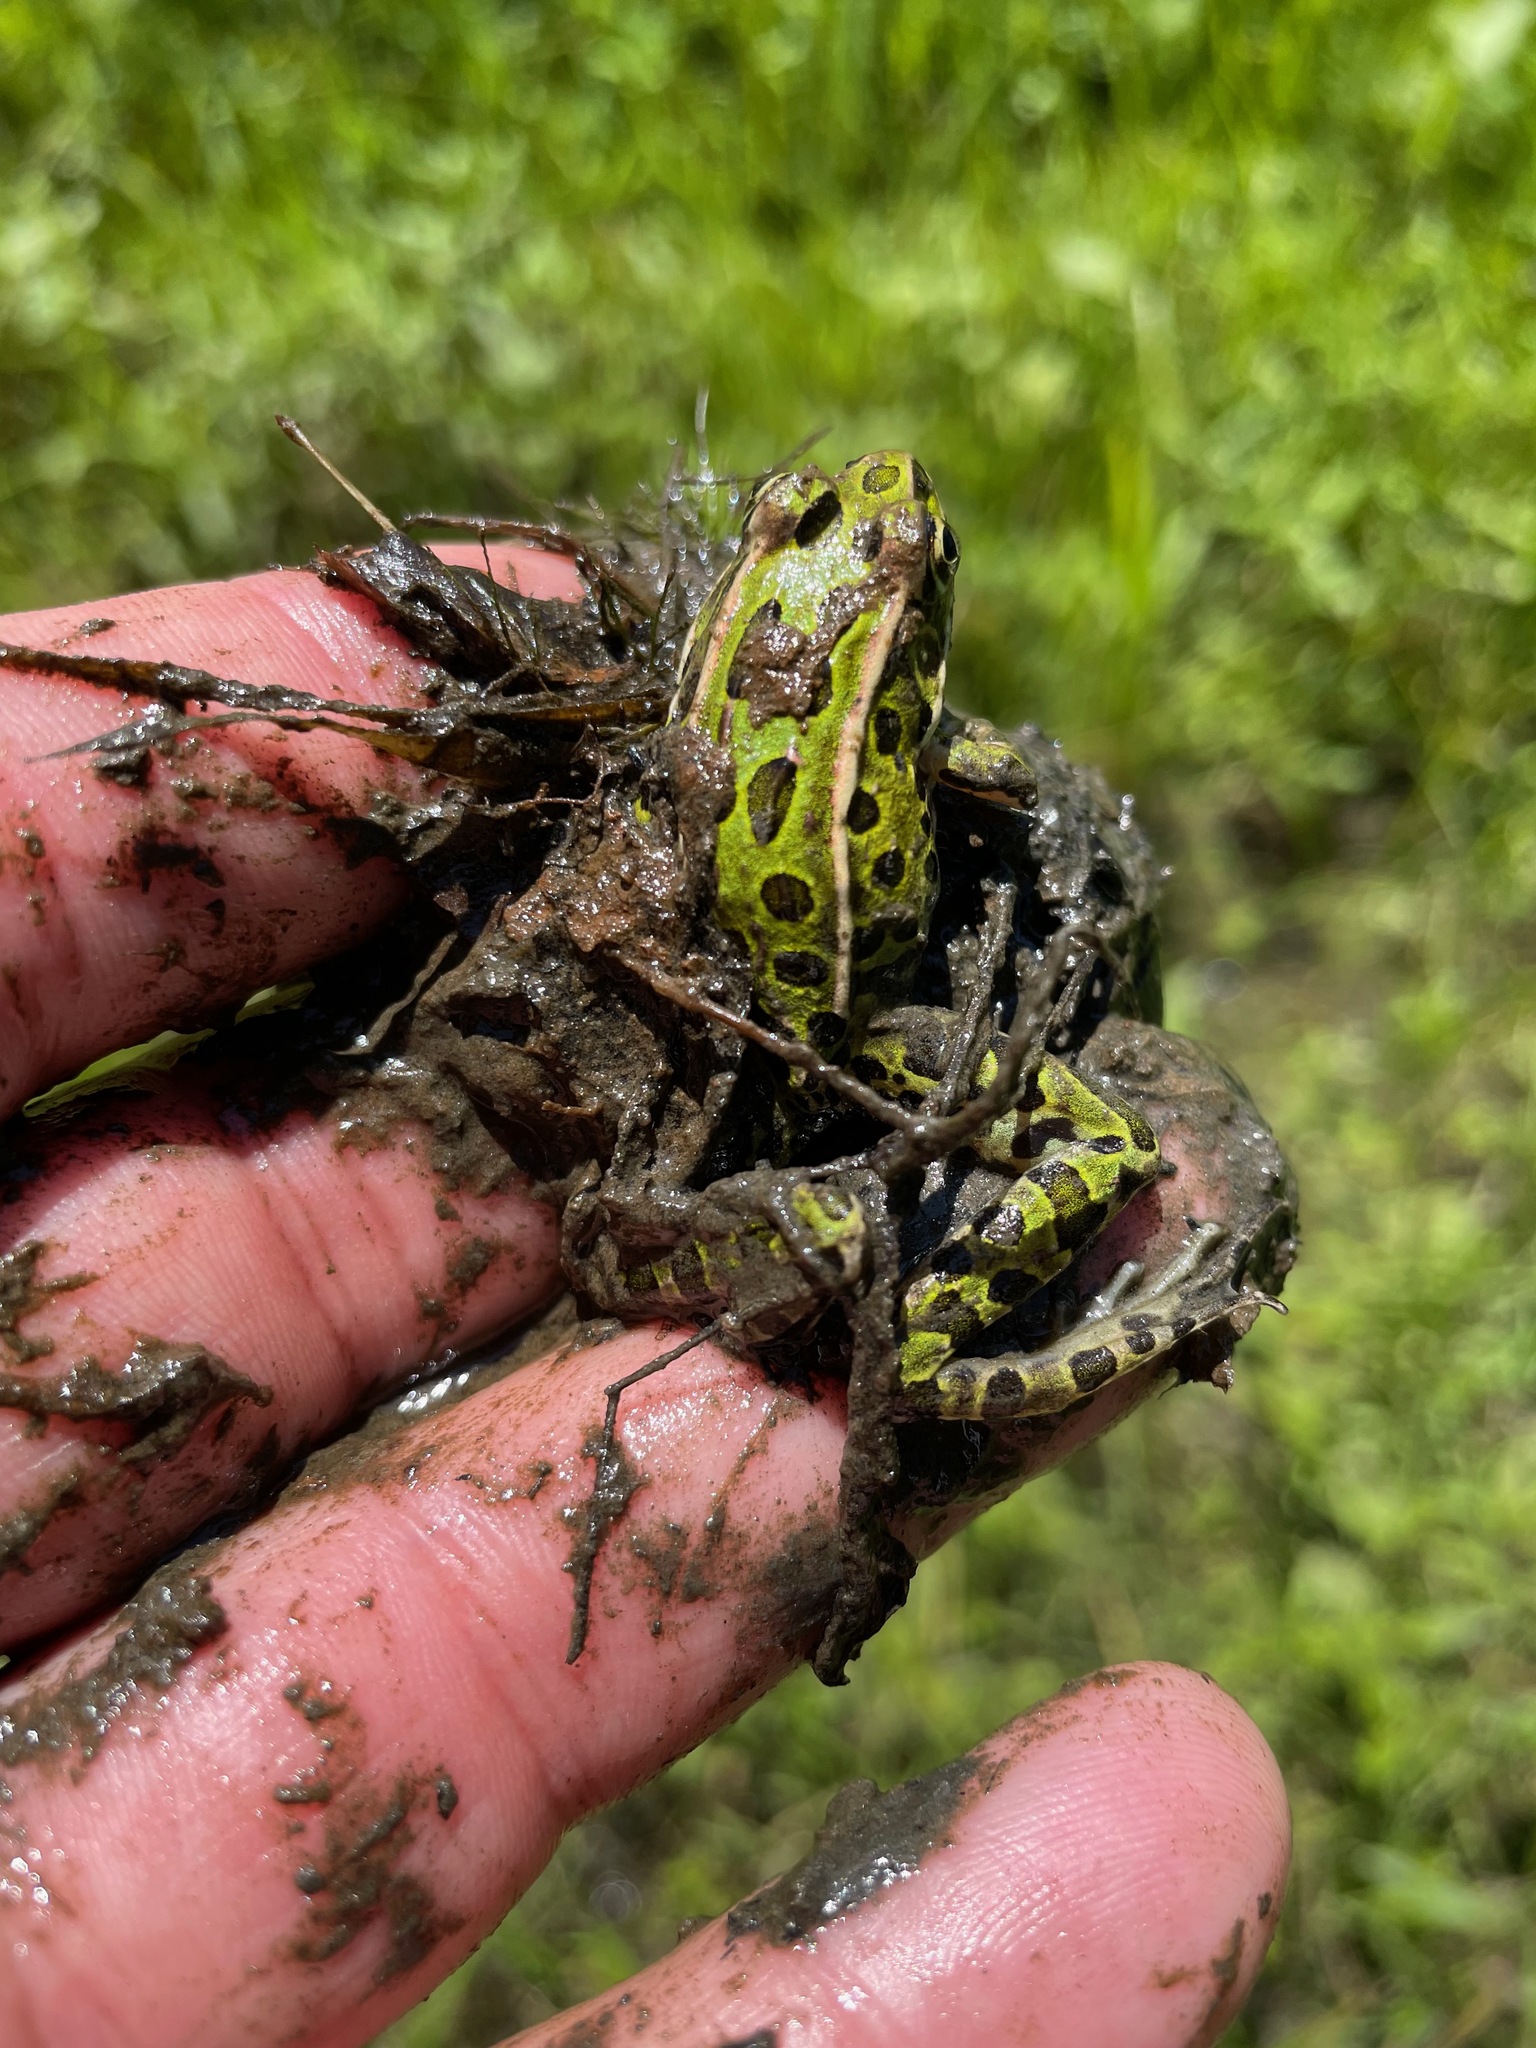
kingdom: Animalia
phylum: Chordata
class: Amphibia
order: Anura
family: Ranidae
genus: Lithobates
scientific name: Lithobates pipiens
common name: Northern leopard frog
